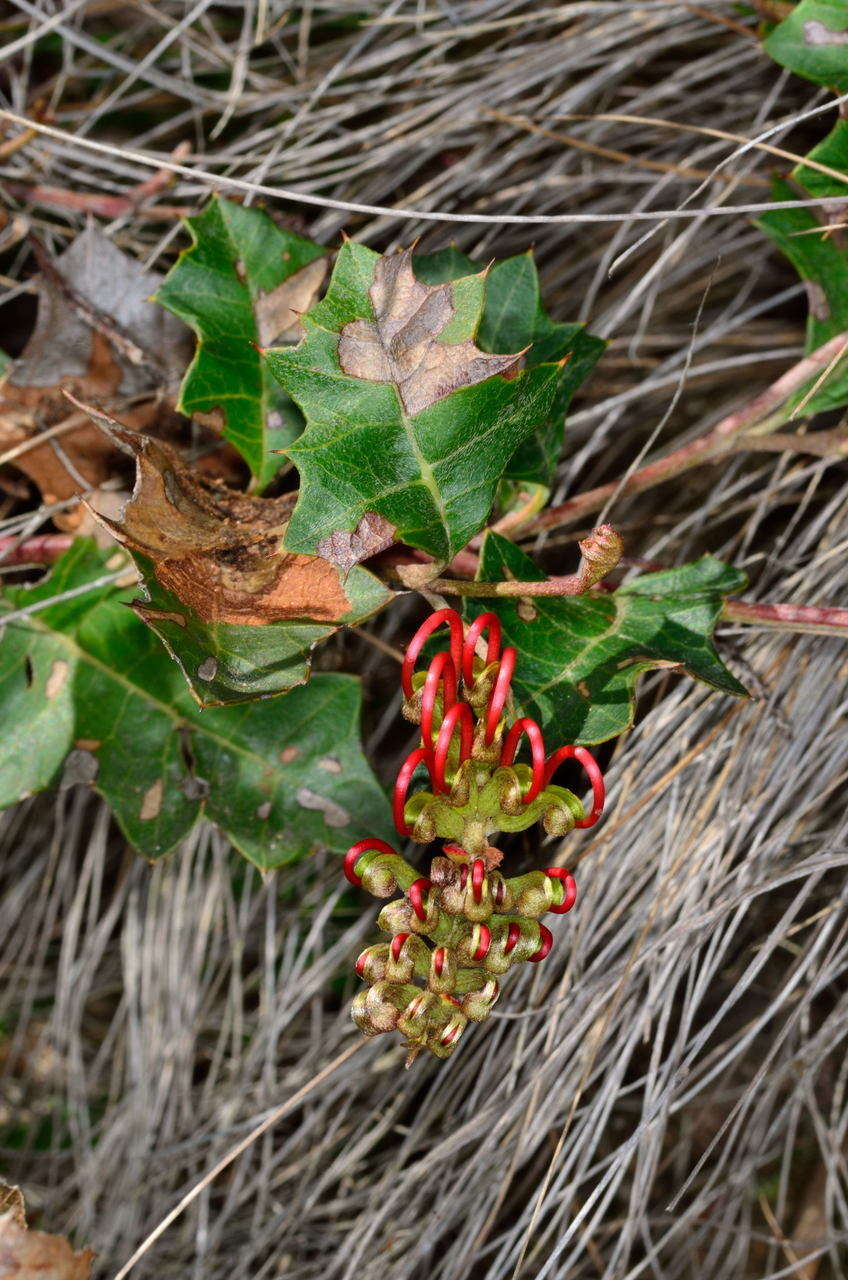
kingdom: Plantae
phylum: Tracheophyta
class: Magnoliopsida
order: Proteales
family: Proteaceae
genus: Grevillea
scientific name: Grevillea steiglitziana
